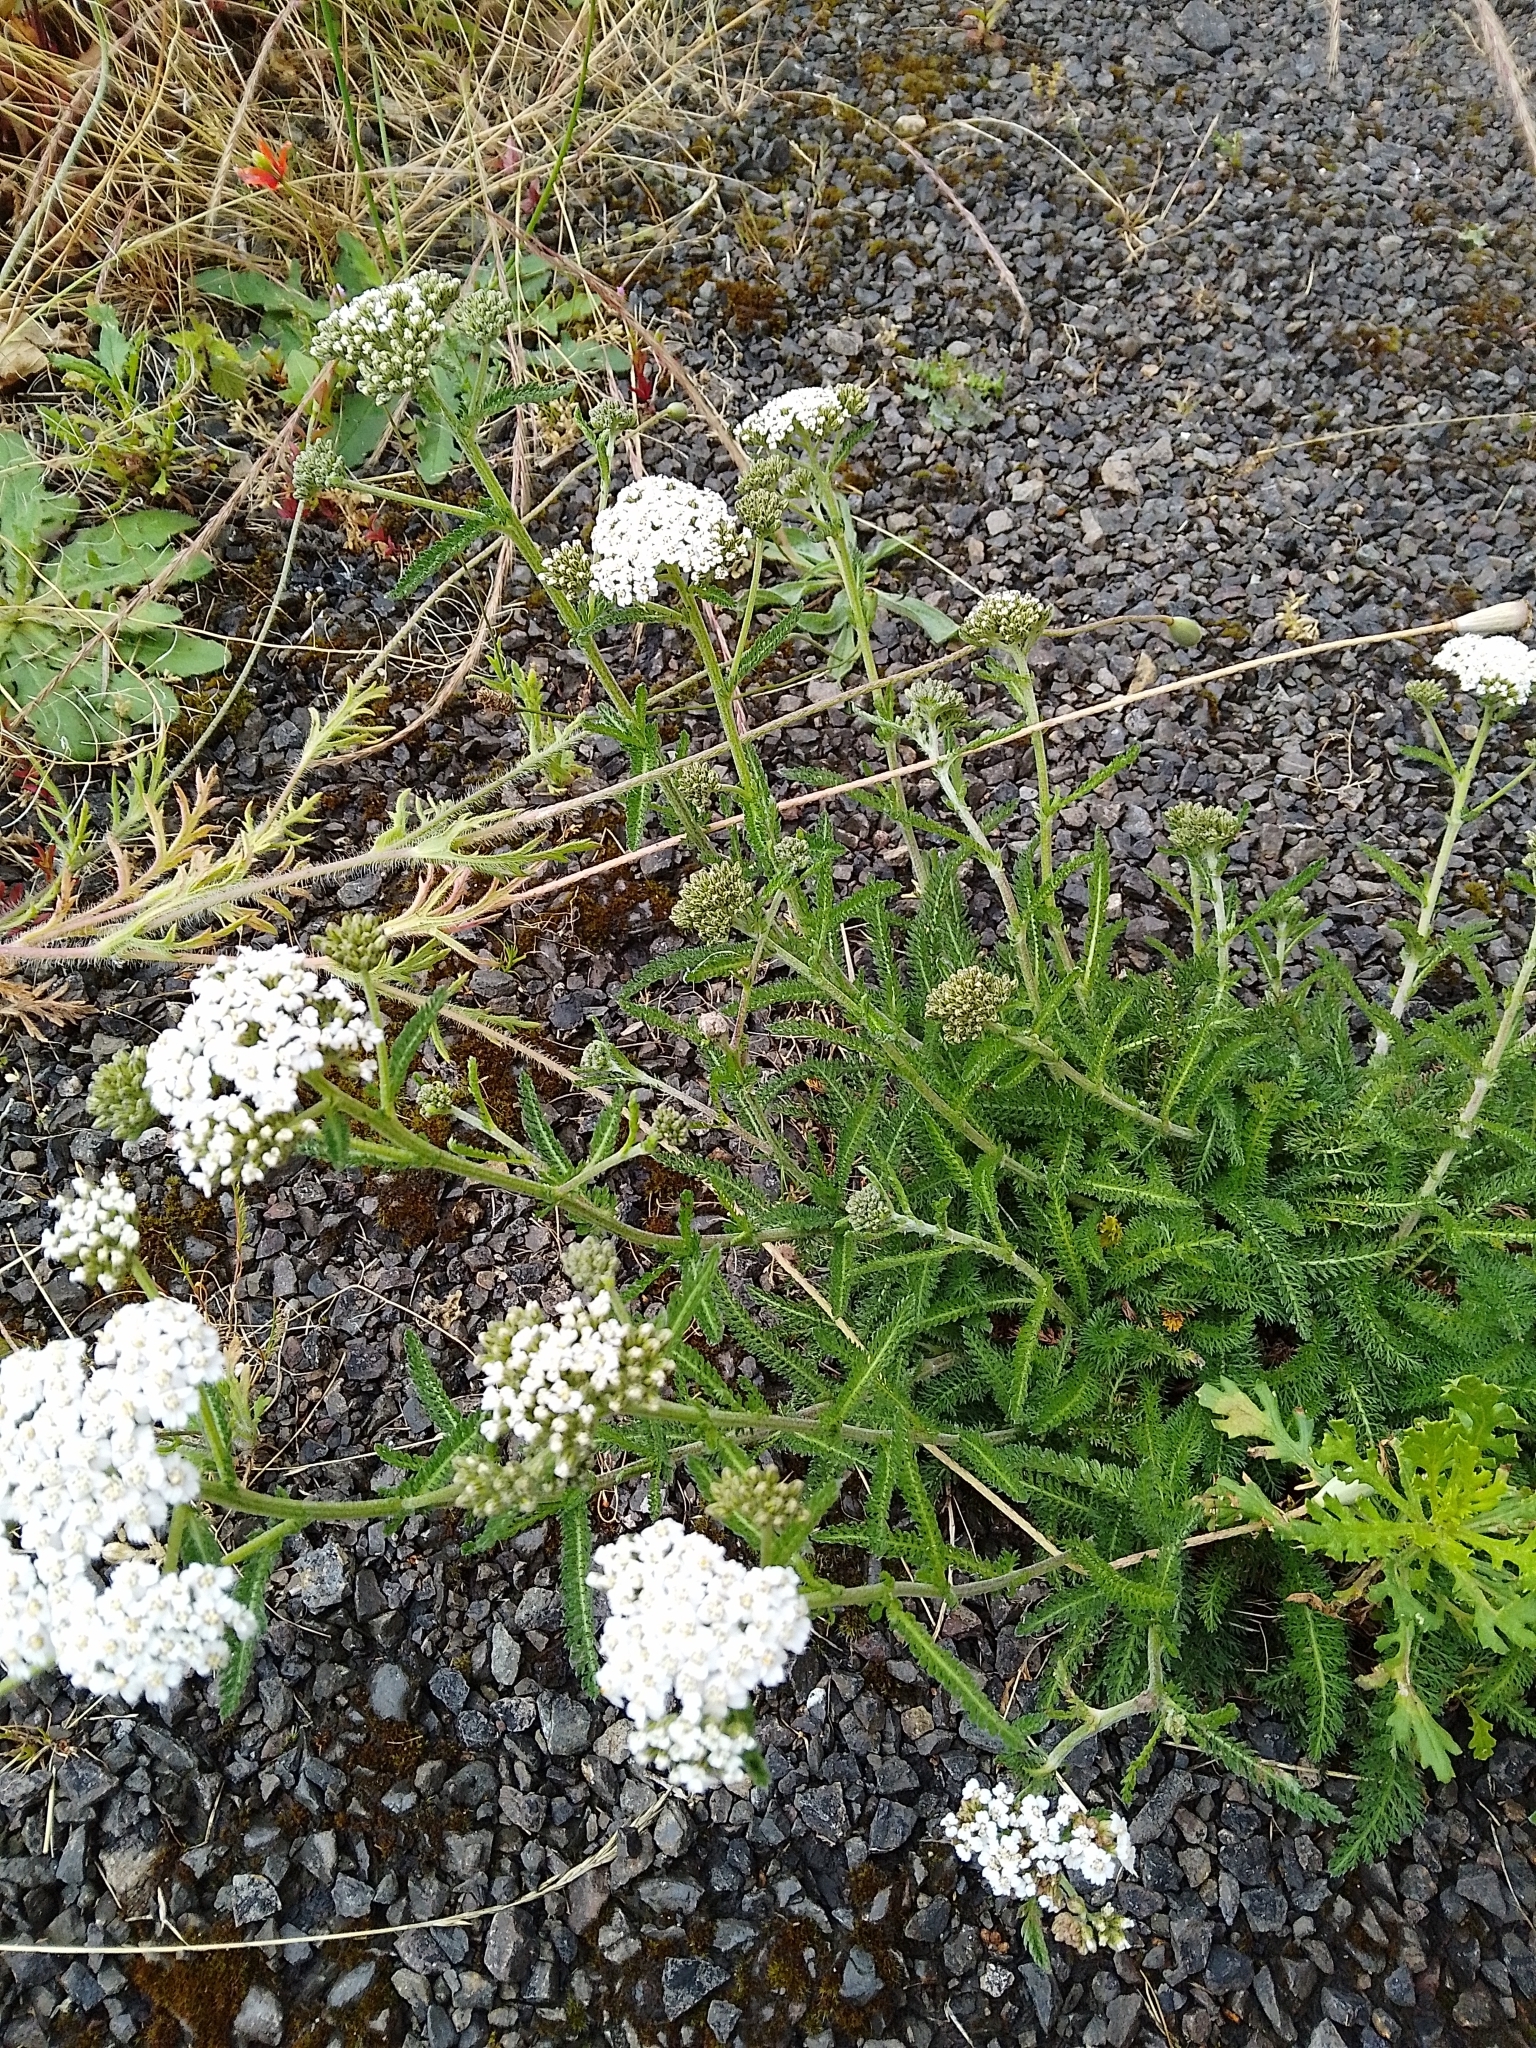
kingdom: Plantae
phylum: Tracheophyta
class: Magnoliopsida
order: Asterales
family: Asteraceae
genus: Achillea
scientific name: Achillea millefolium
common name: Yarrow
